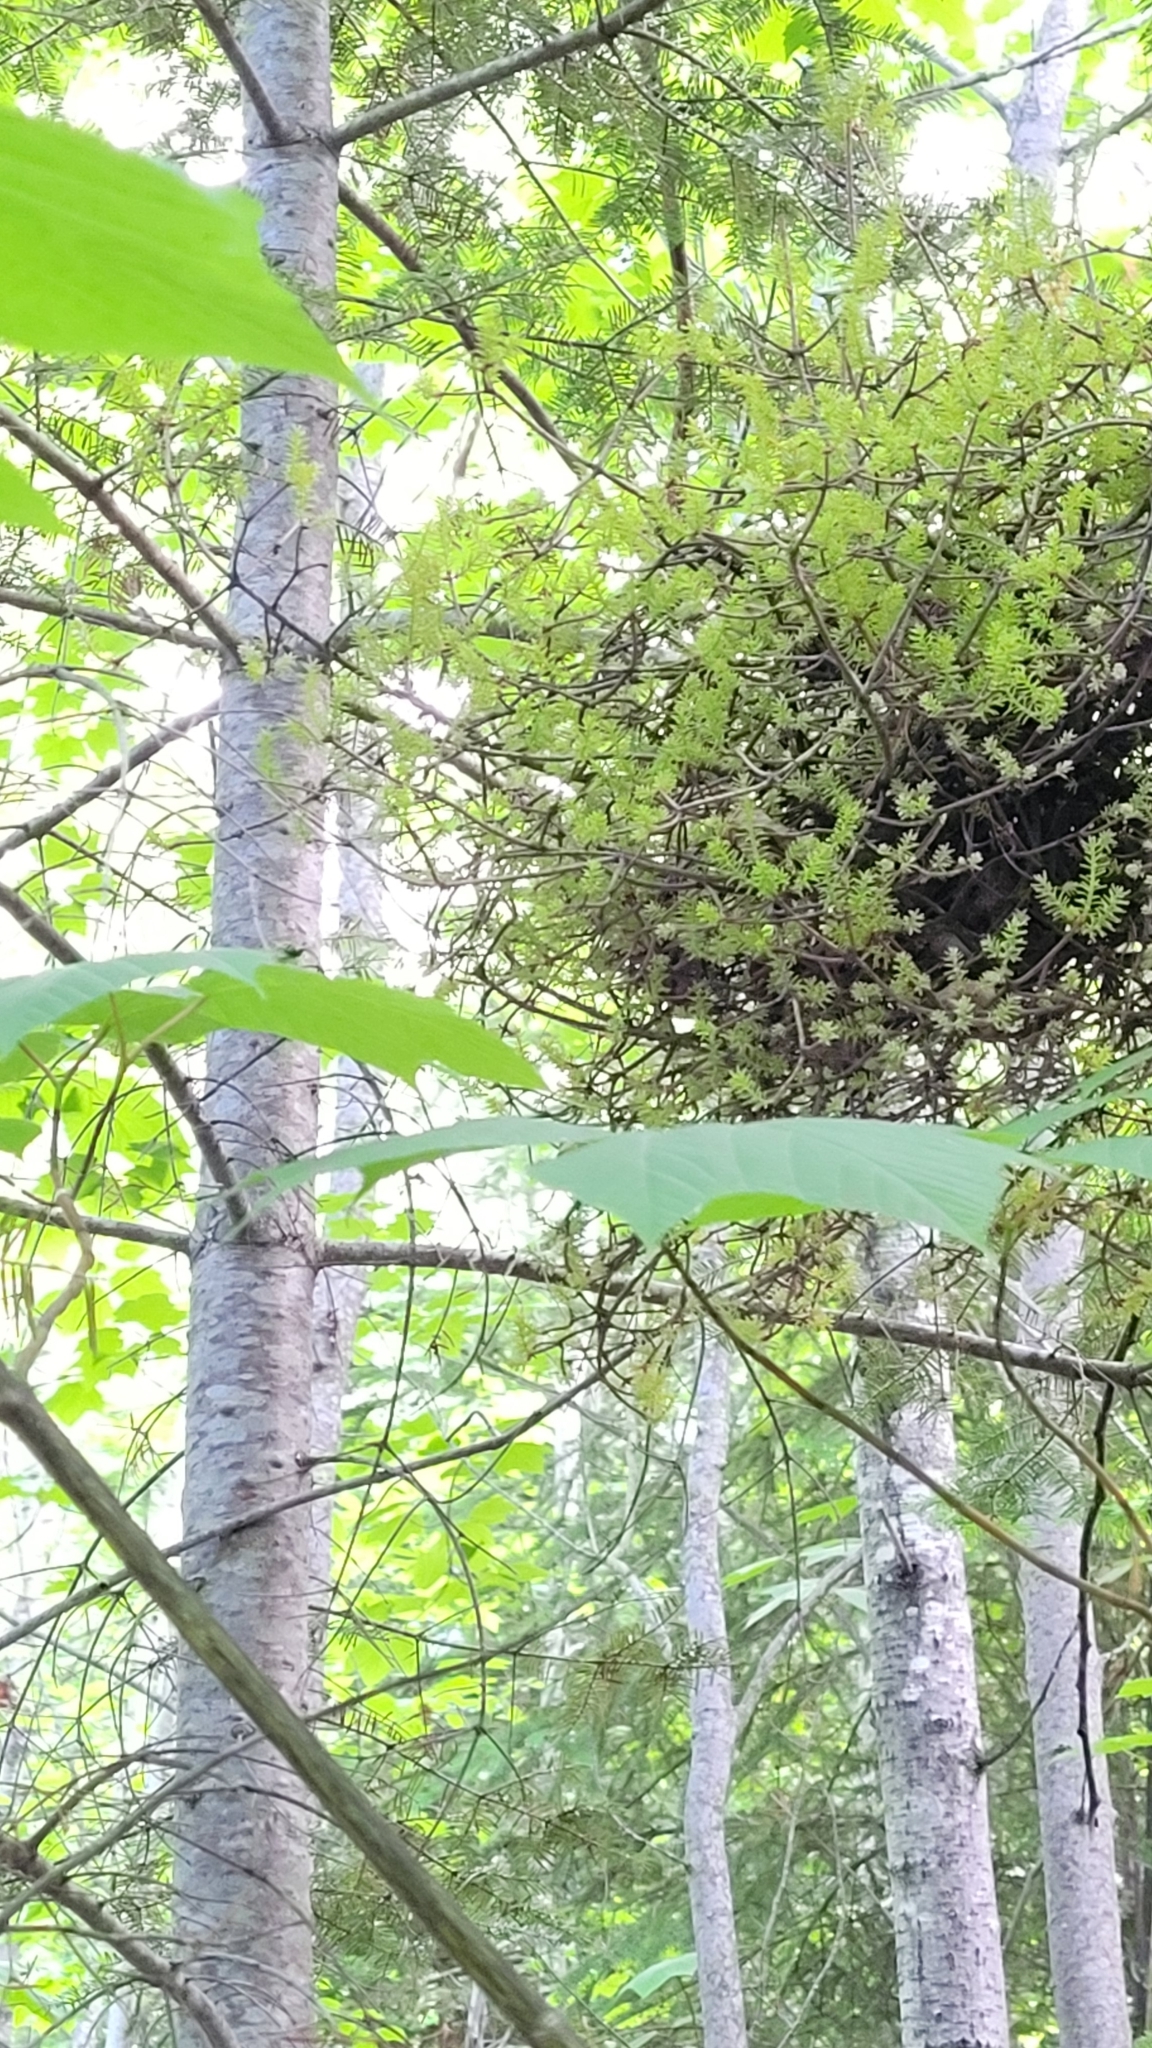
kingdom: Fungi
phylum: Basidiomycota
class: Pucciniomycetes
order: Pucciniales
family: Pucciniastraceae
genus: Melampsorella
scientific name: Melampsorella elatina
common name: Fir broom rust
